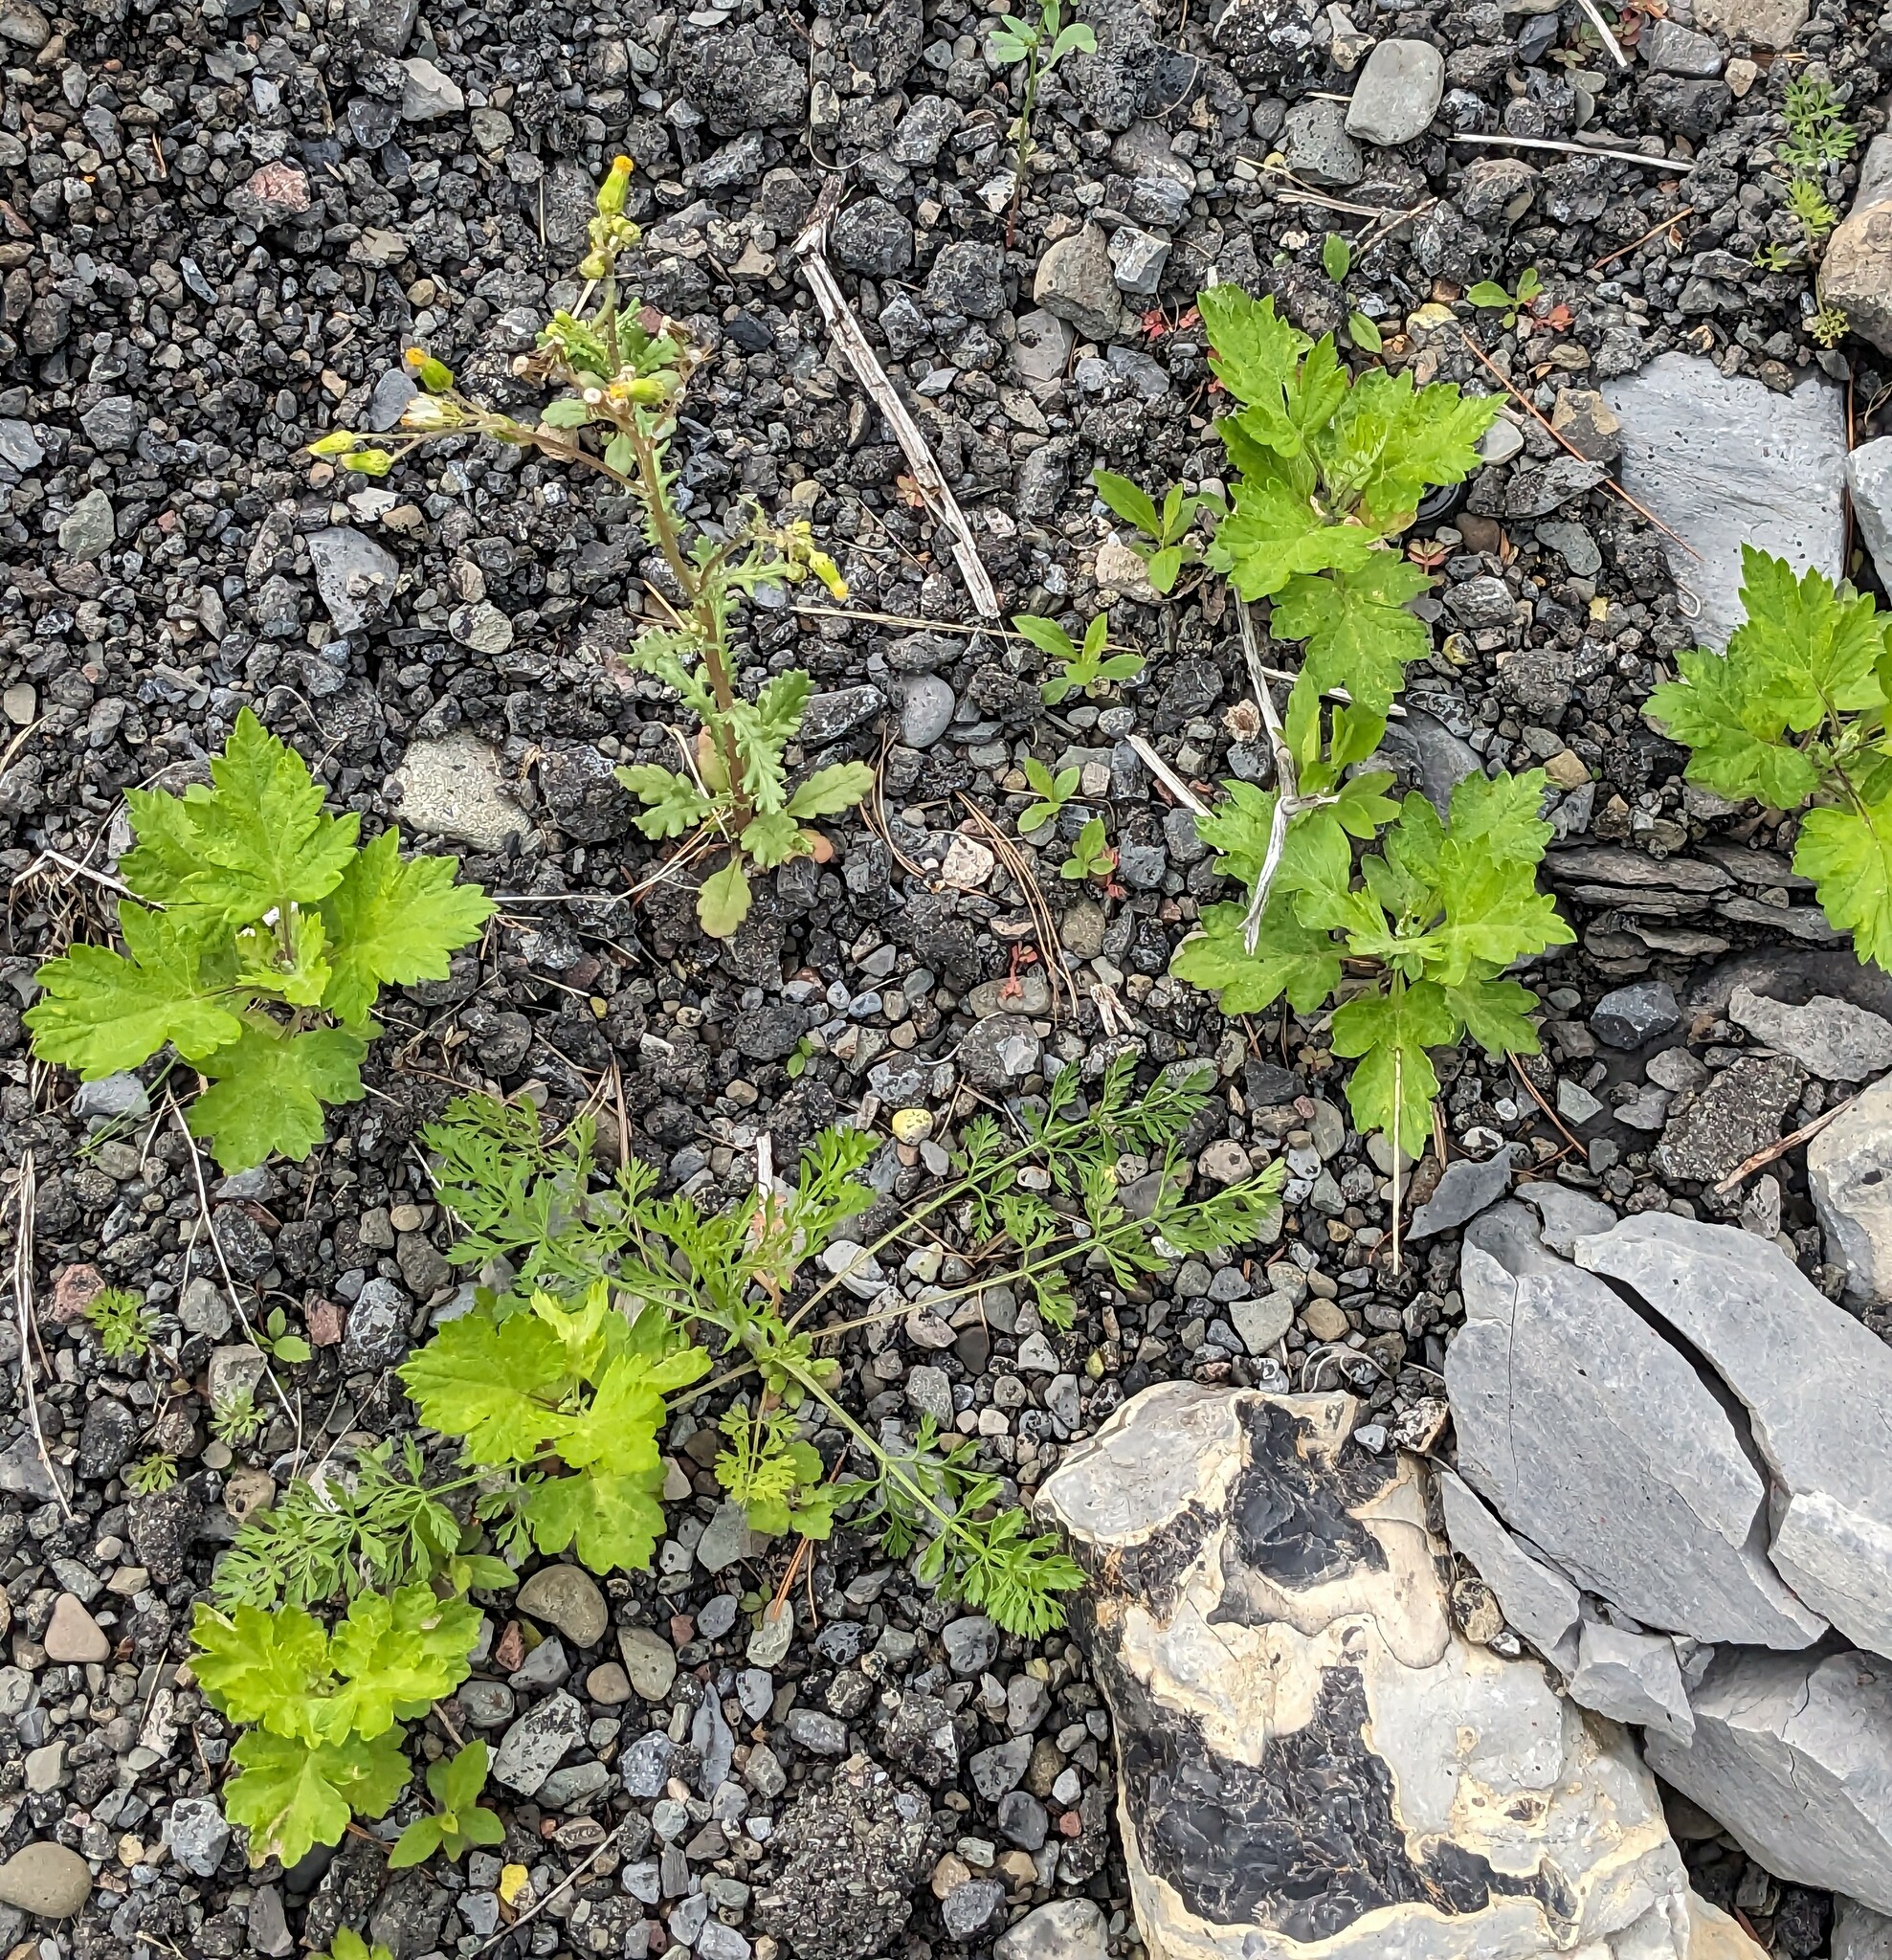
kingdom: Plantae
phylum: Tracheophyta
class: Magnoliopsida
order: Asterales
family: Asteraceae
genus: Artemisia
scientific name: Artemisia vulgaris
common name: Mugwort
